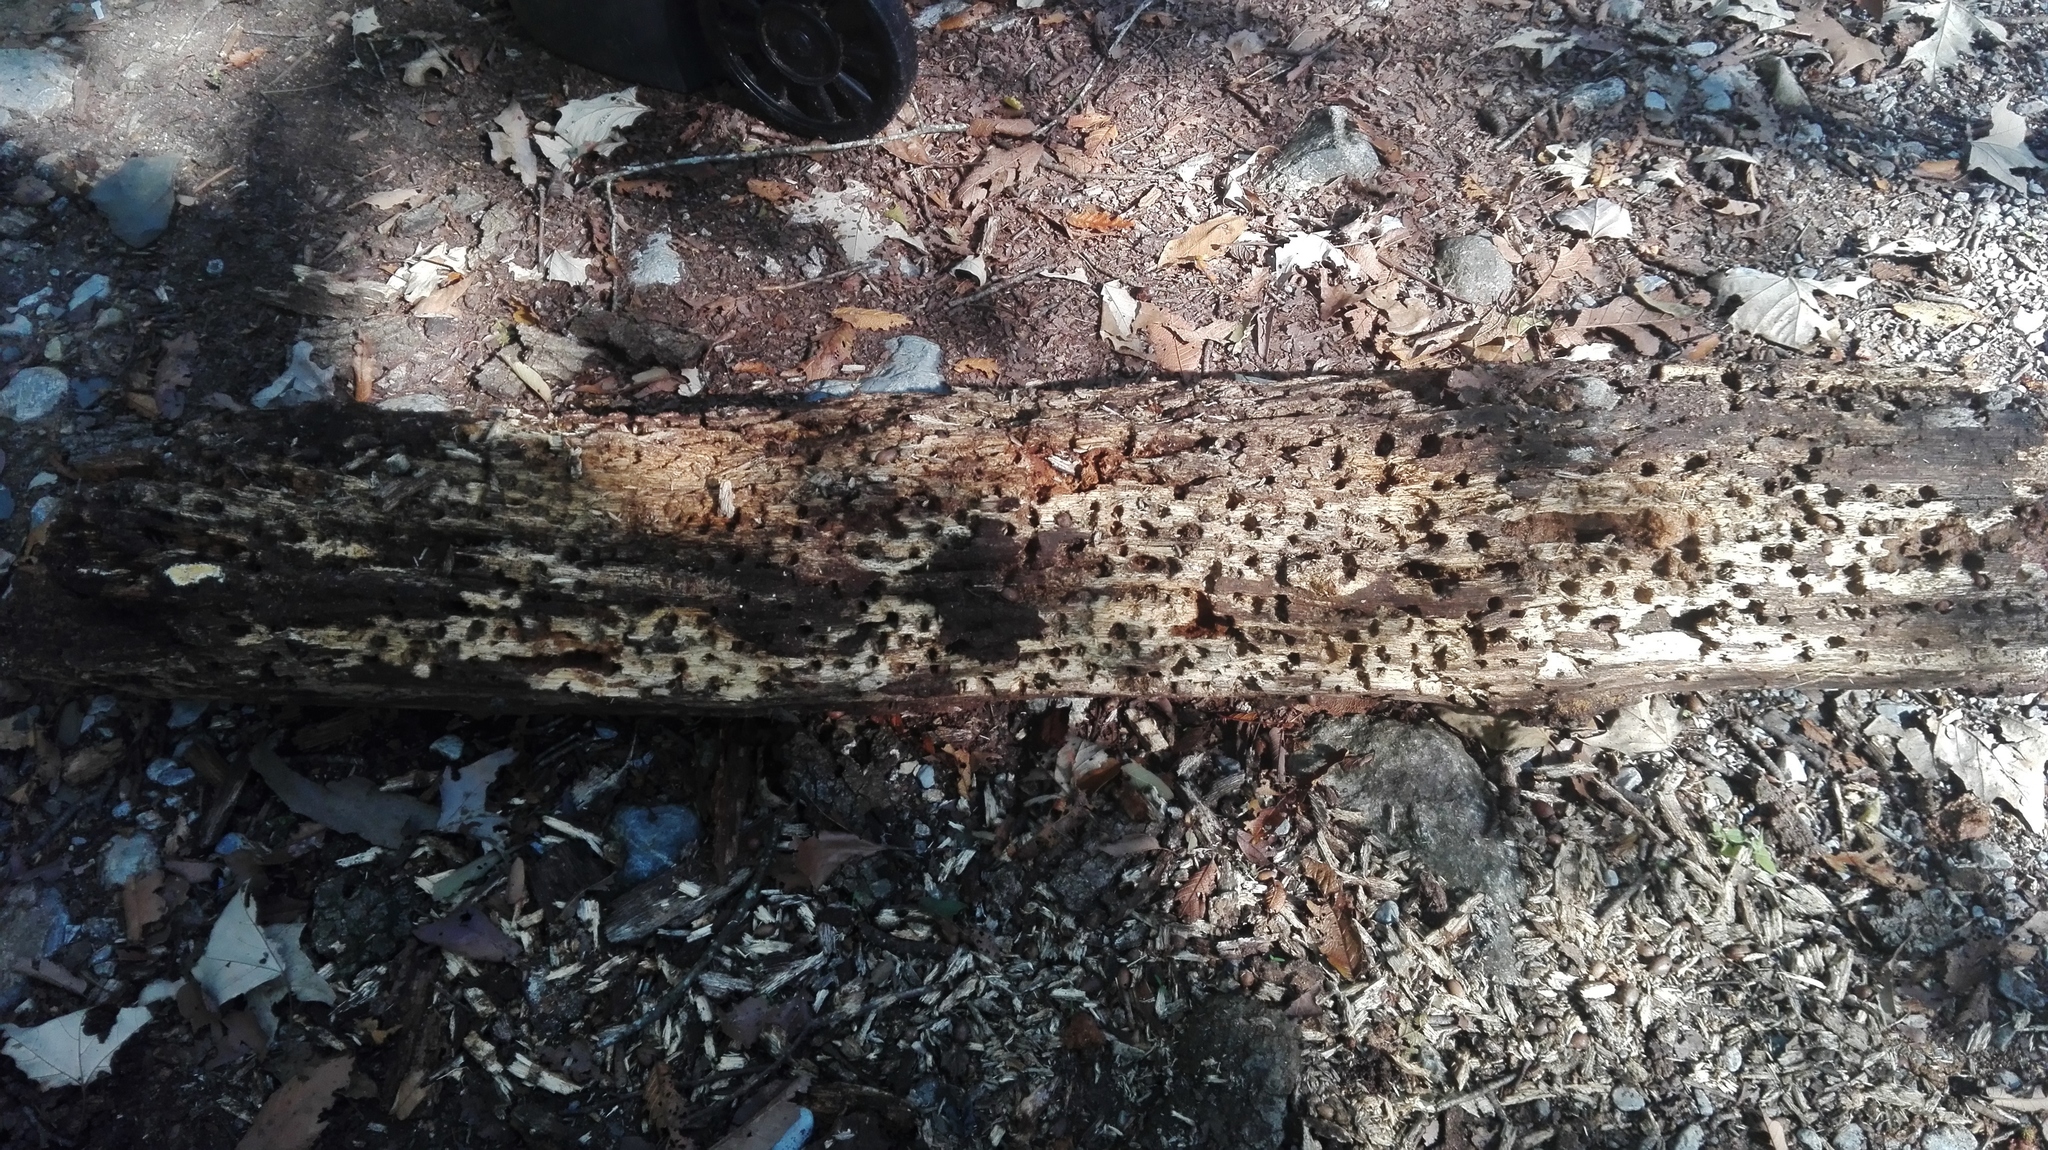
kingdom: Animalia
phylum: Chordata
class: Aves
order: Piciformes
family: Picidae
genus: Melanerpes
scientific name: Melanerpes formicivorus
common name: Acorn woodpecker
